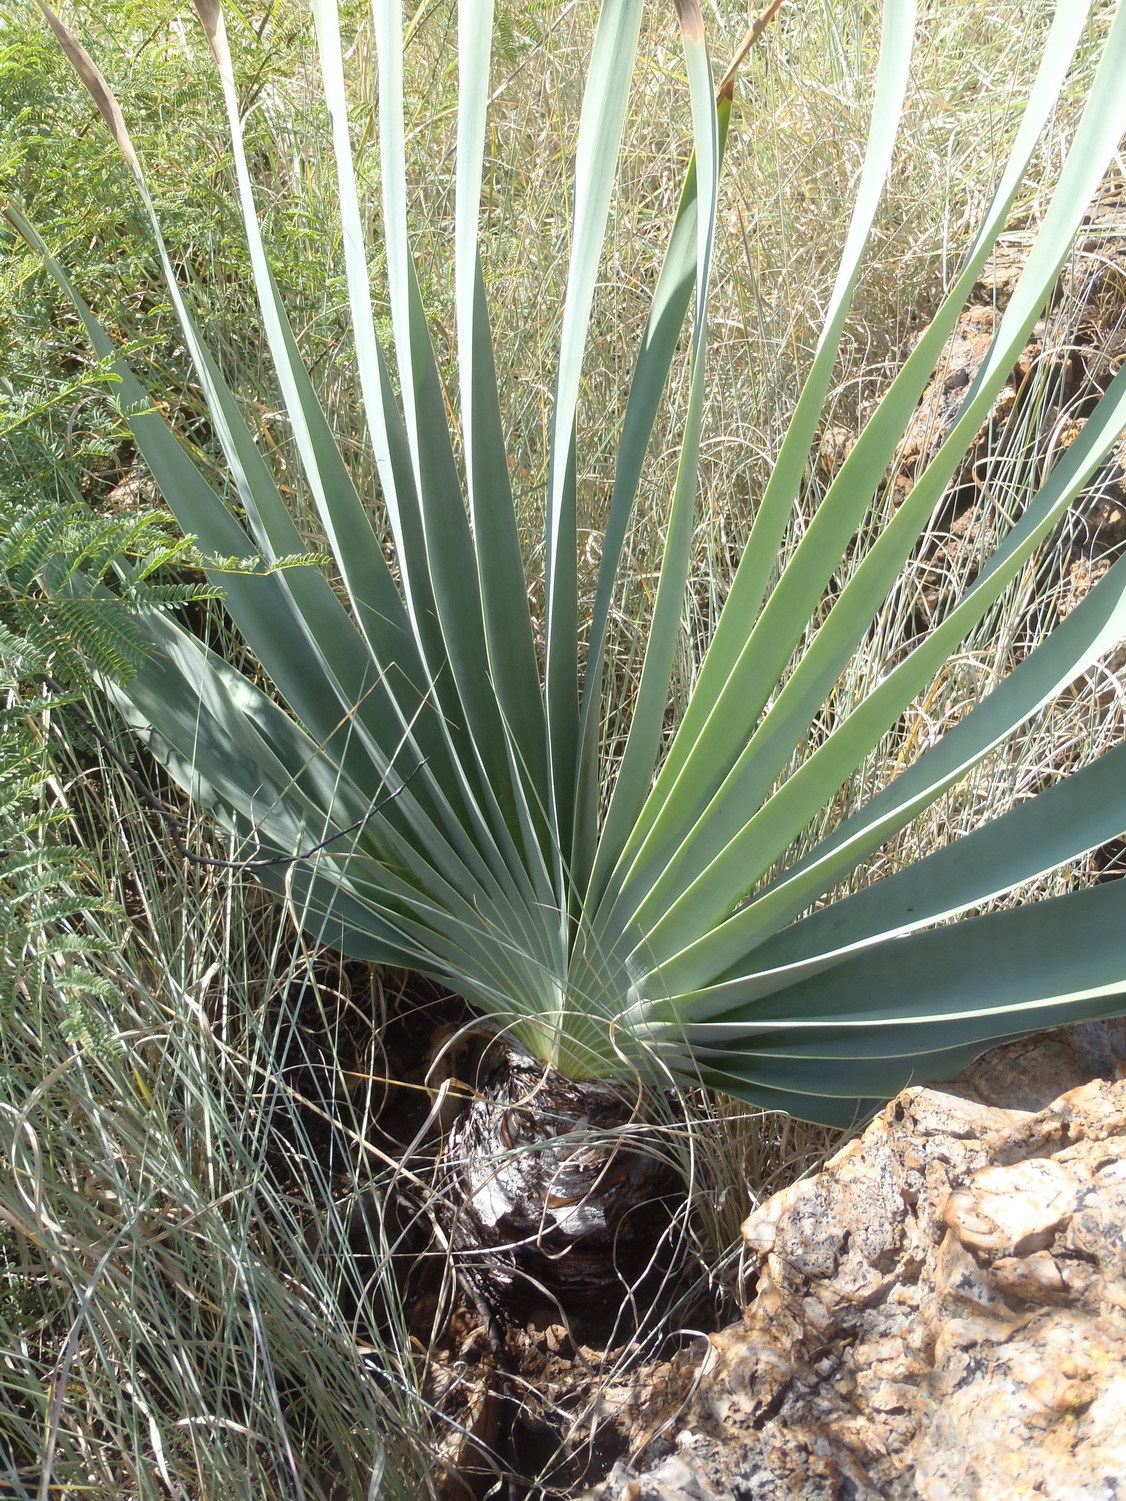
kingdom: Plantae
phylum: Tracheophyta
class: Liliopsida
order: Asparagales
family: Amaryllidaceae
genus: Boophone
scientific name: Boophone disticha
